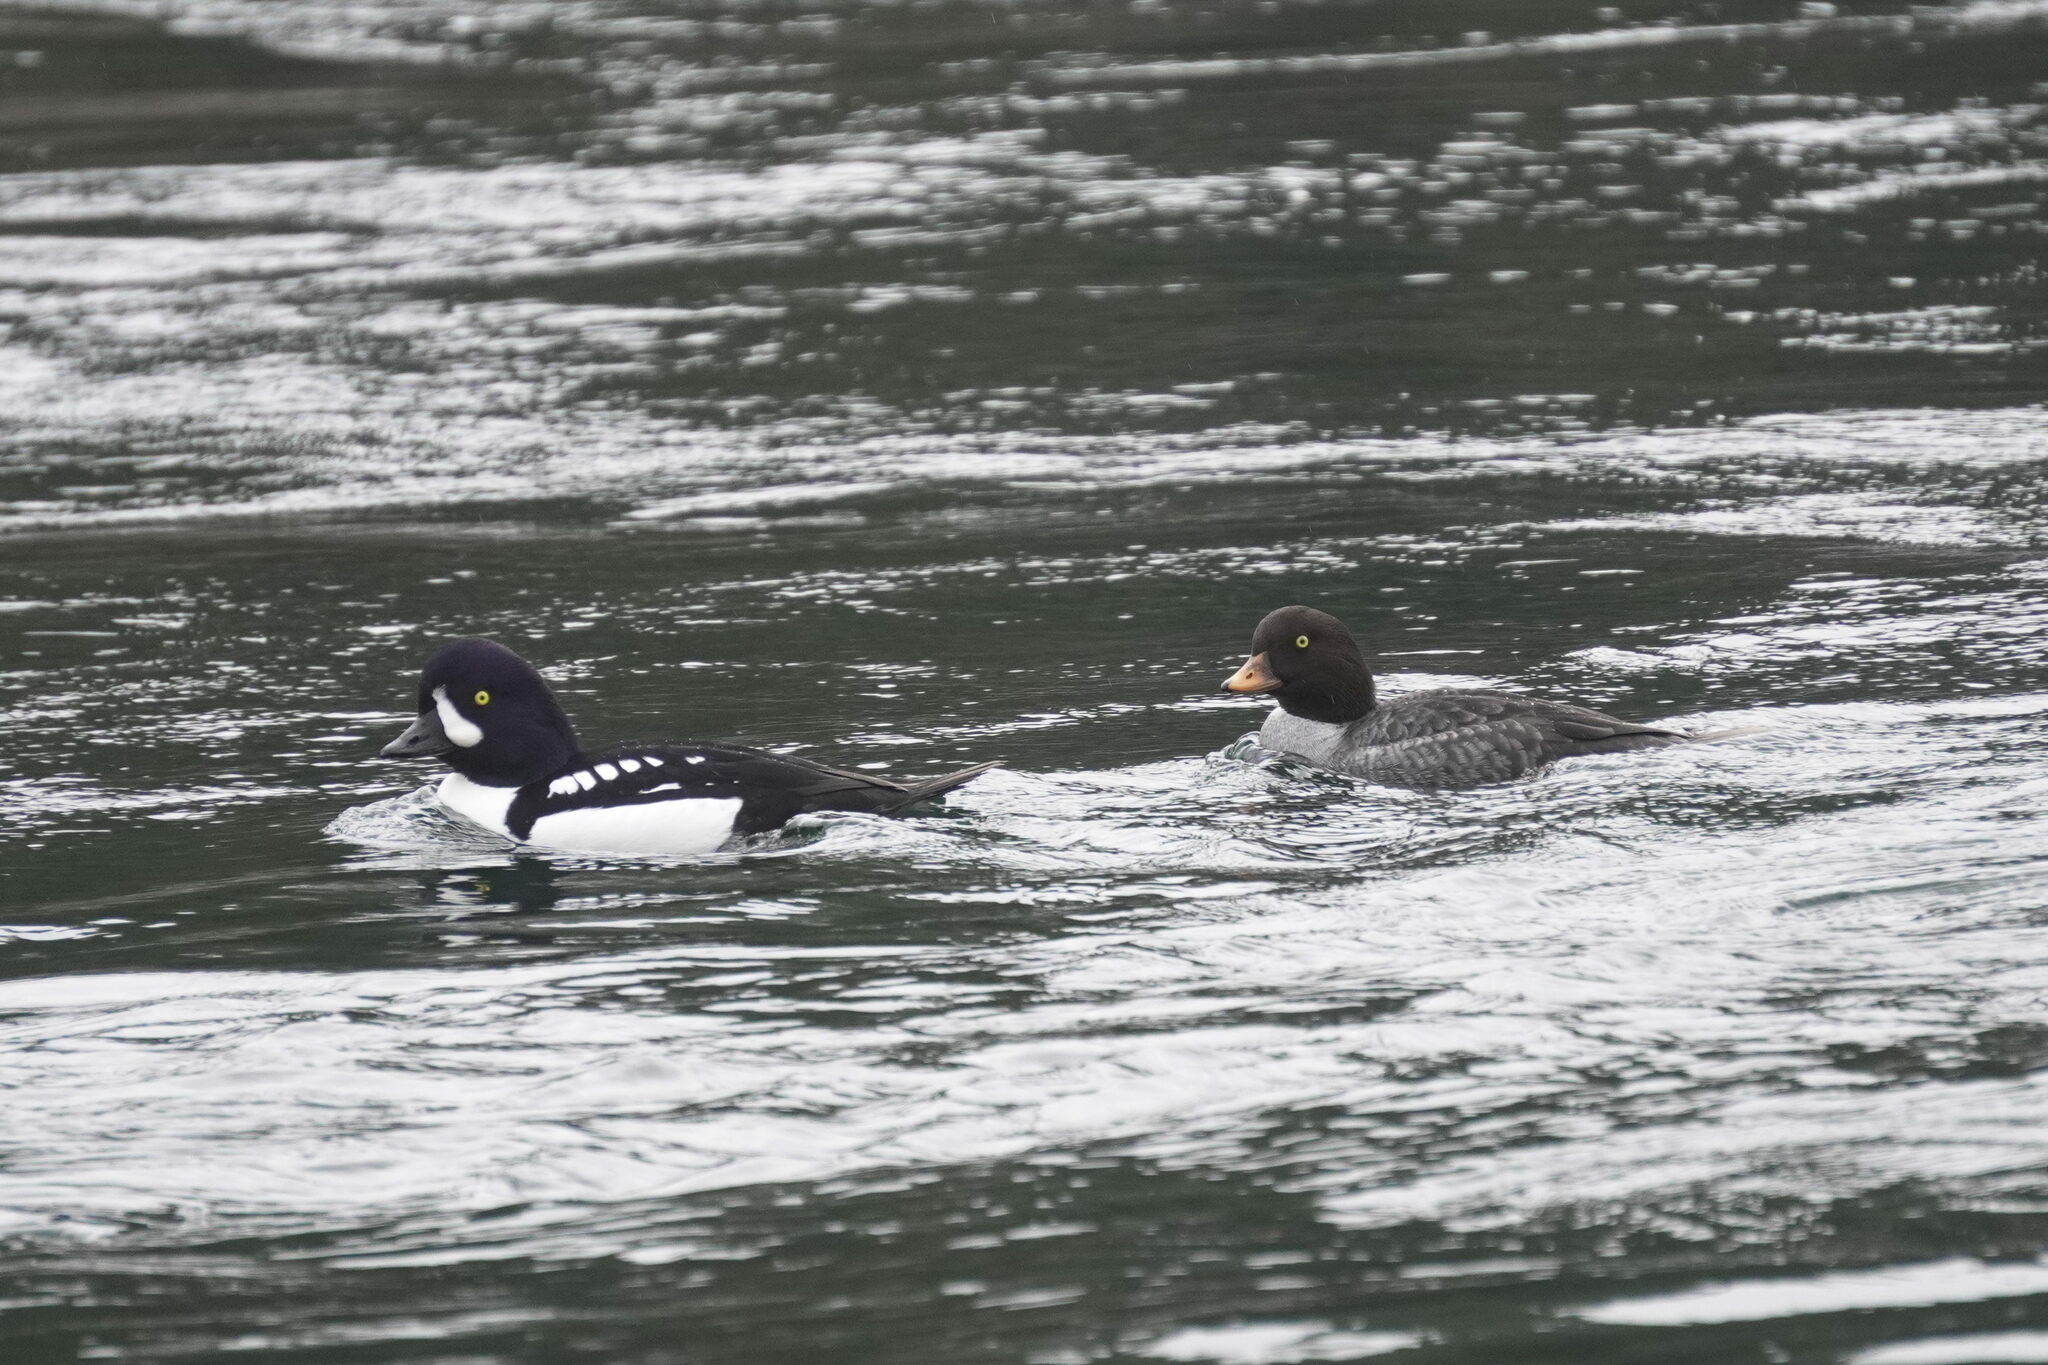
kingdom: Animalia
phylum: Chordata
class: Aves
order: Anseriformes
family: Anatidae
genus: Bucephala
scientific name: Bucephala islandica
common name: Barrow's goldeneye
